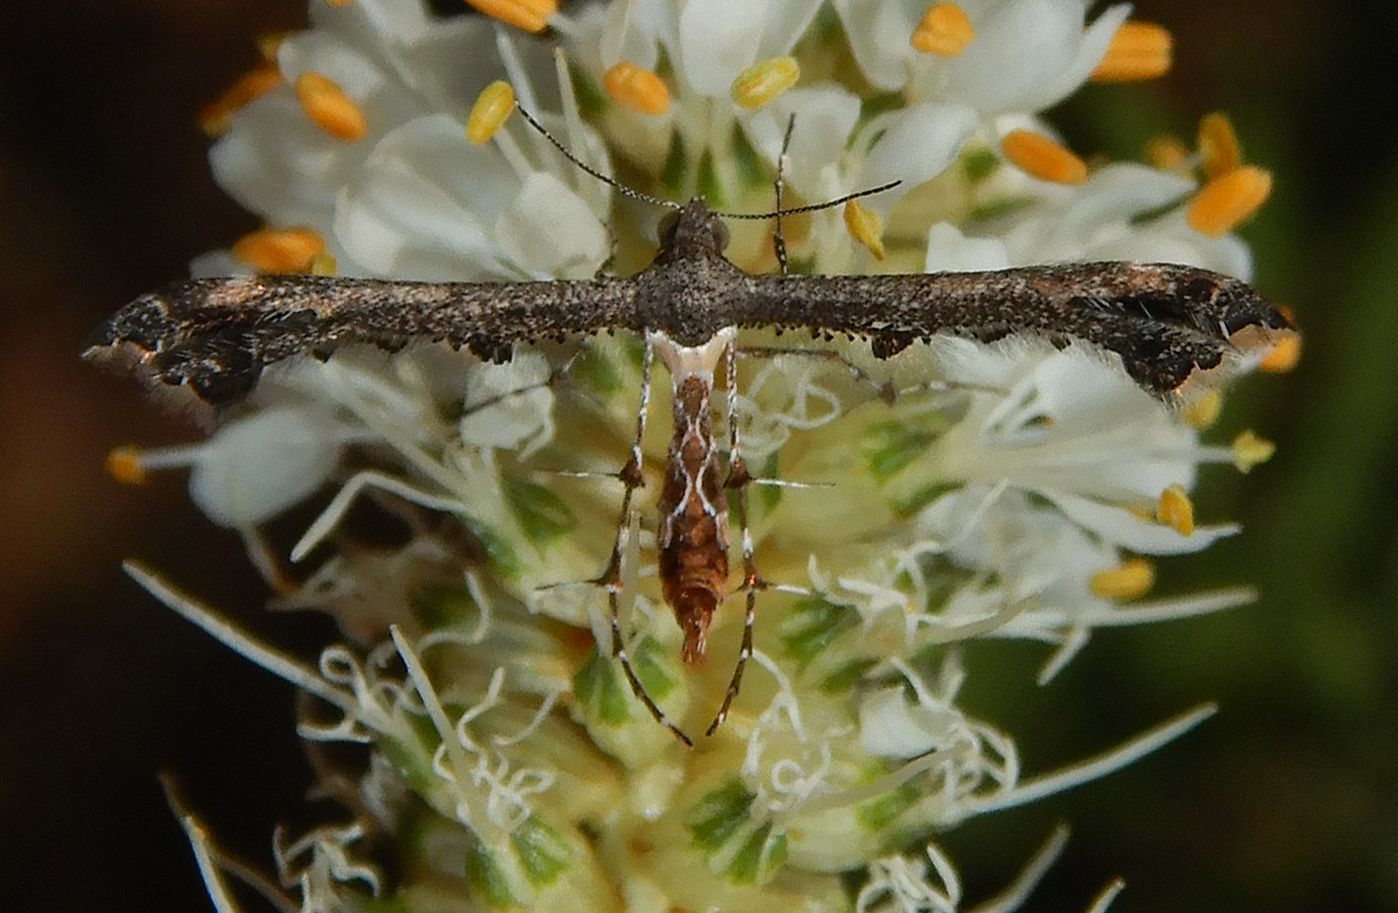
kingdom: Animalia
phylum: Arthropoda
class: Insecta
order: Lepidoptera
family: Pterophoridae
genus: Michaelophorus
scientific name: Michaelophorus indentatus
